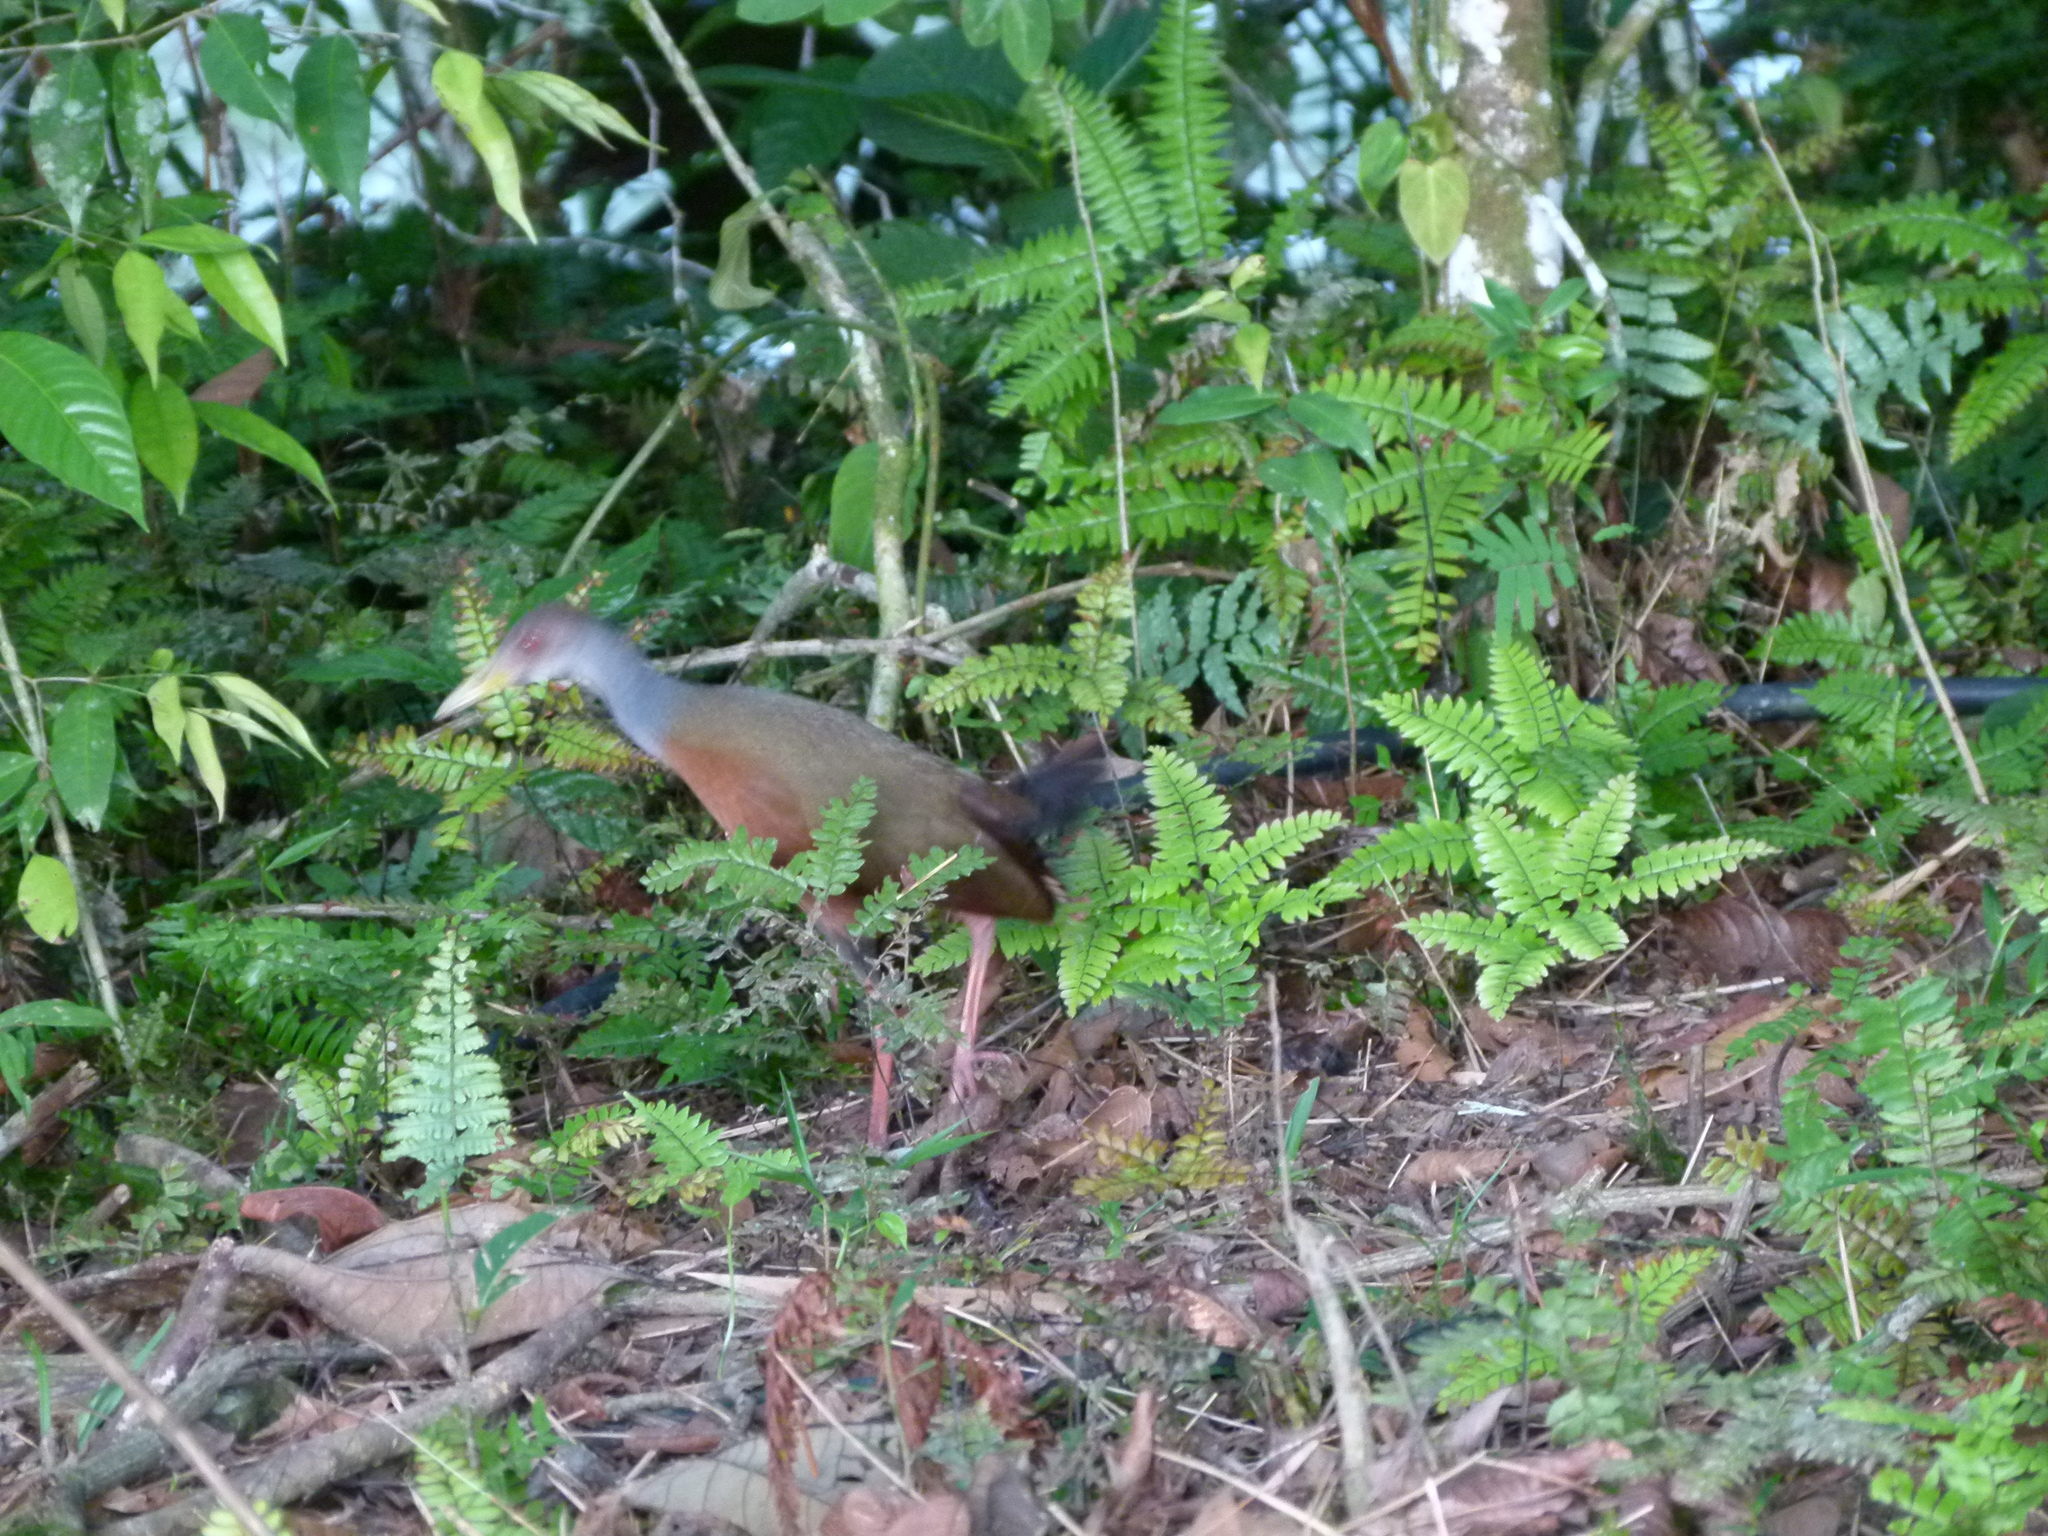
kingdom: Animalia
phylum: Chordata
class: Aves
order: Gruiformes
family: Rallidae
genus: Aramides
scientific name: Aramides cajanea
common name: Gray-necked wood-rail
